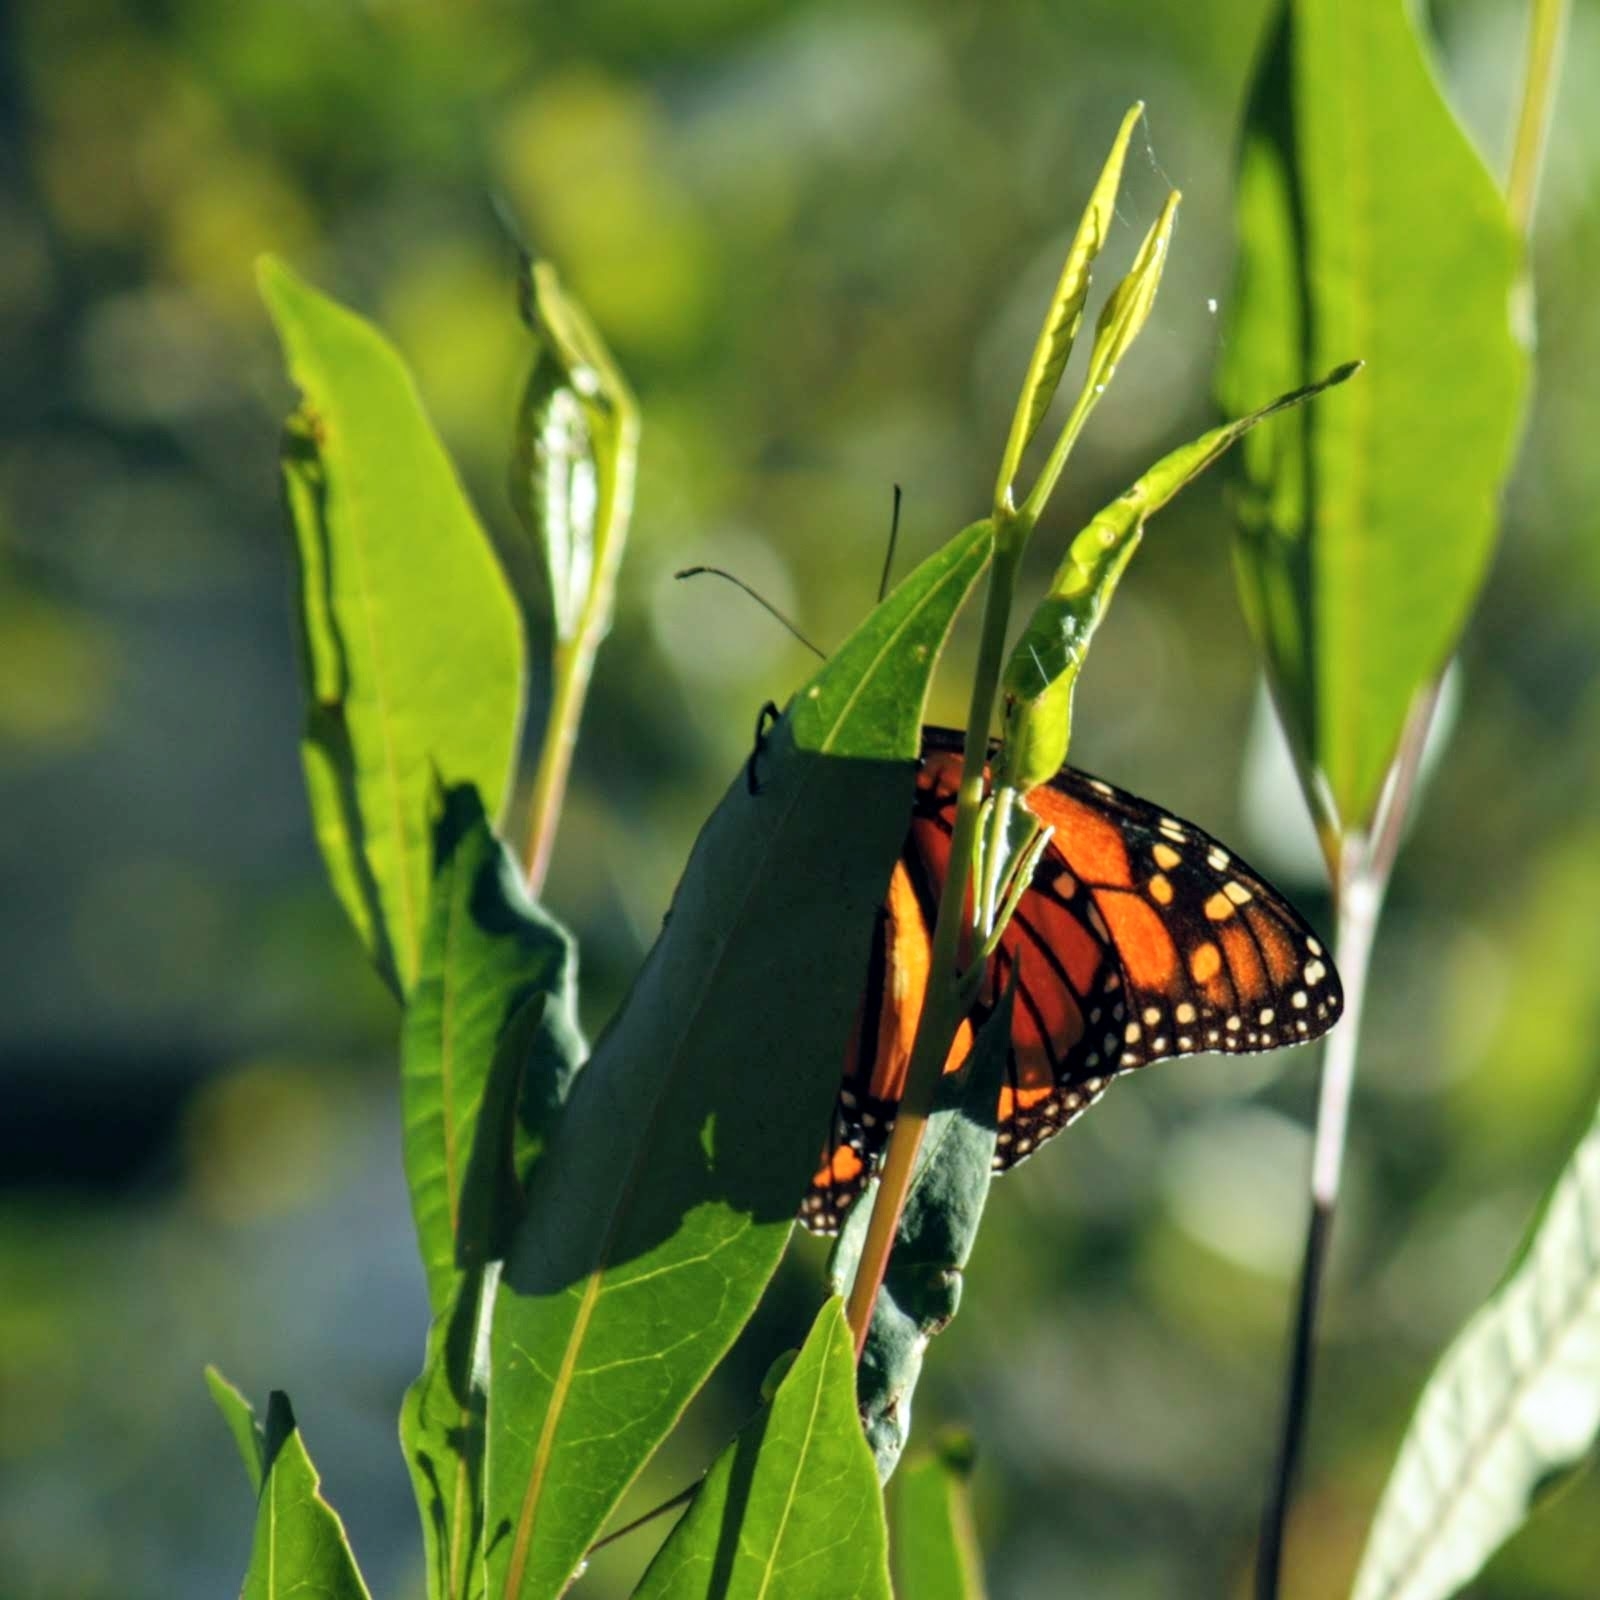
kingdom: Animalia
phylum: Arthropoda
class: Insecta
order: Lepidoptera
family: Nymphalidae
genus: Danaus
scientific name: Danaus plexippus
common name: Monarch
